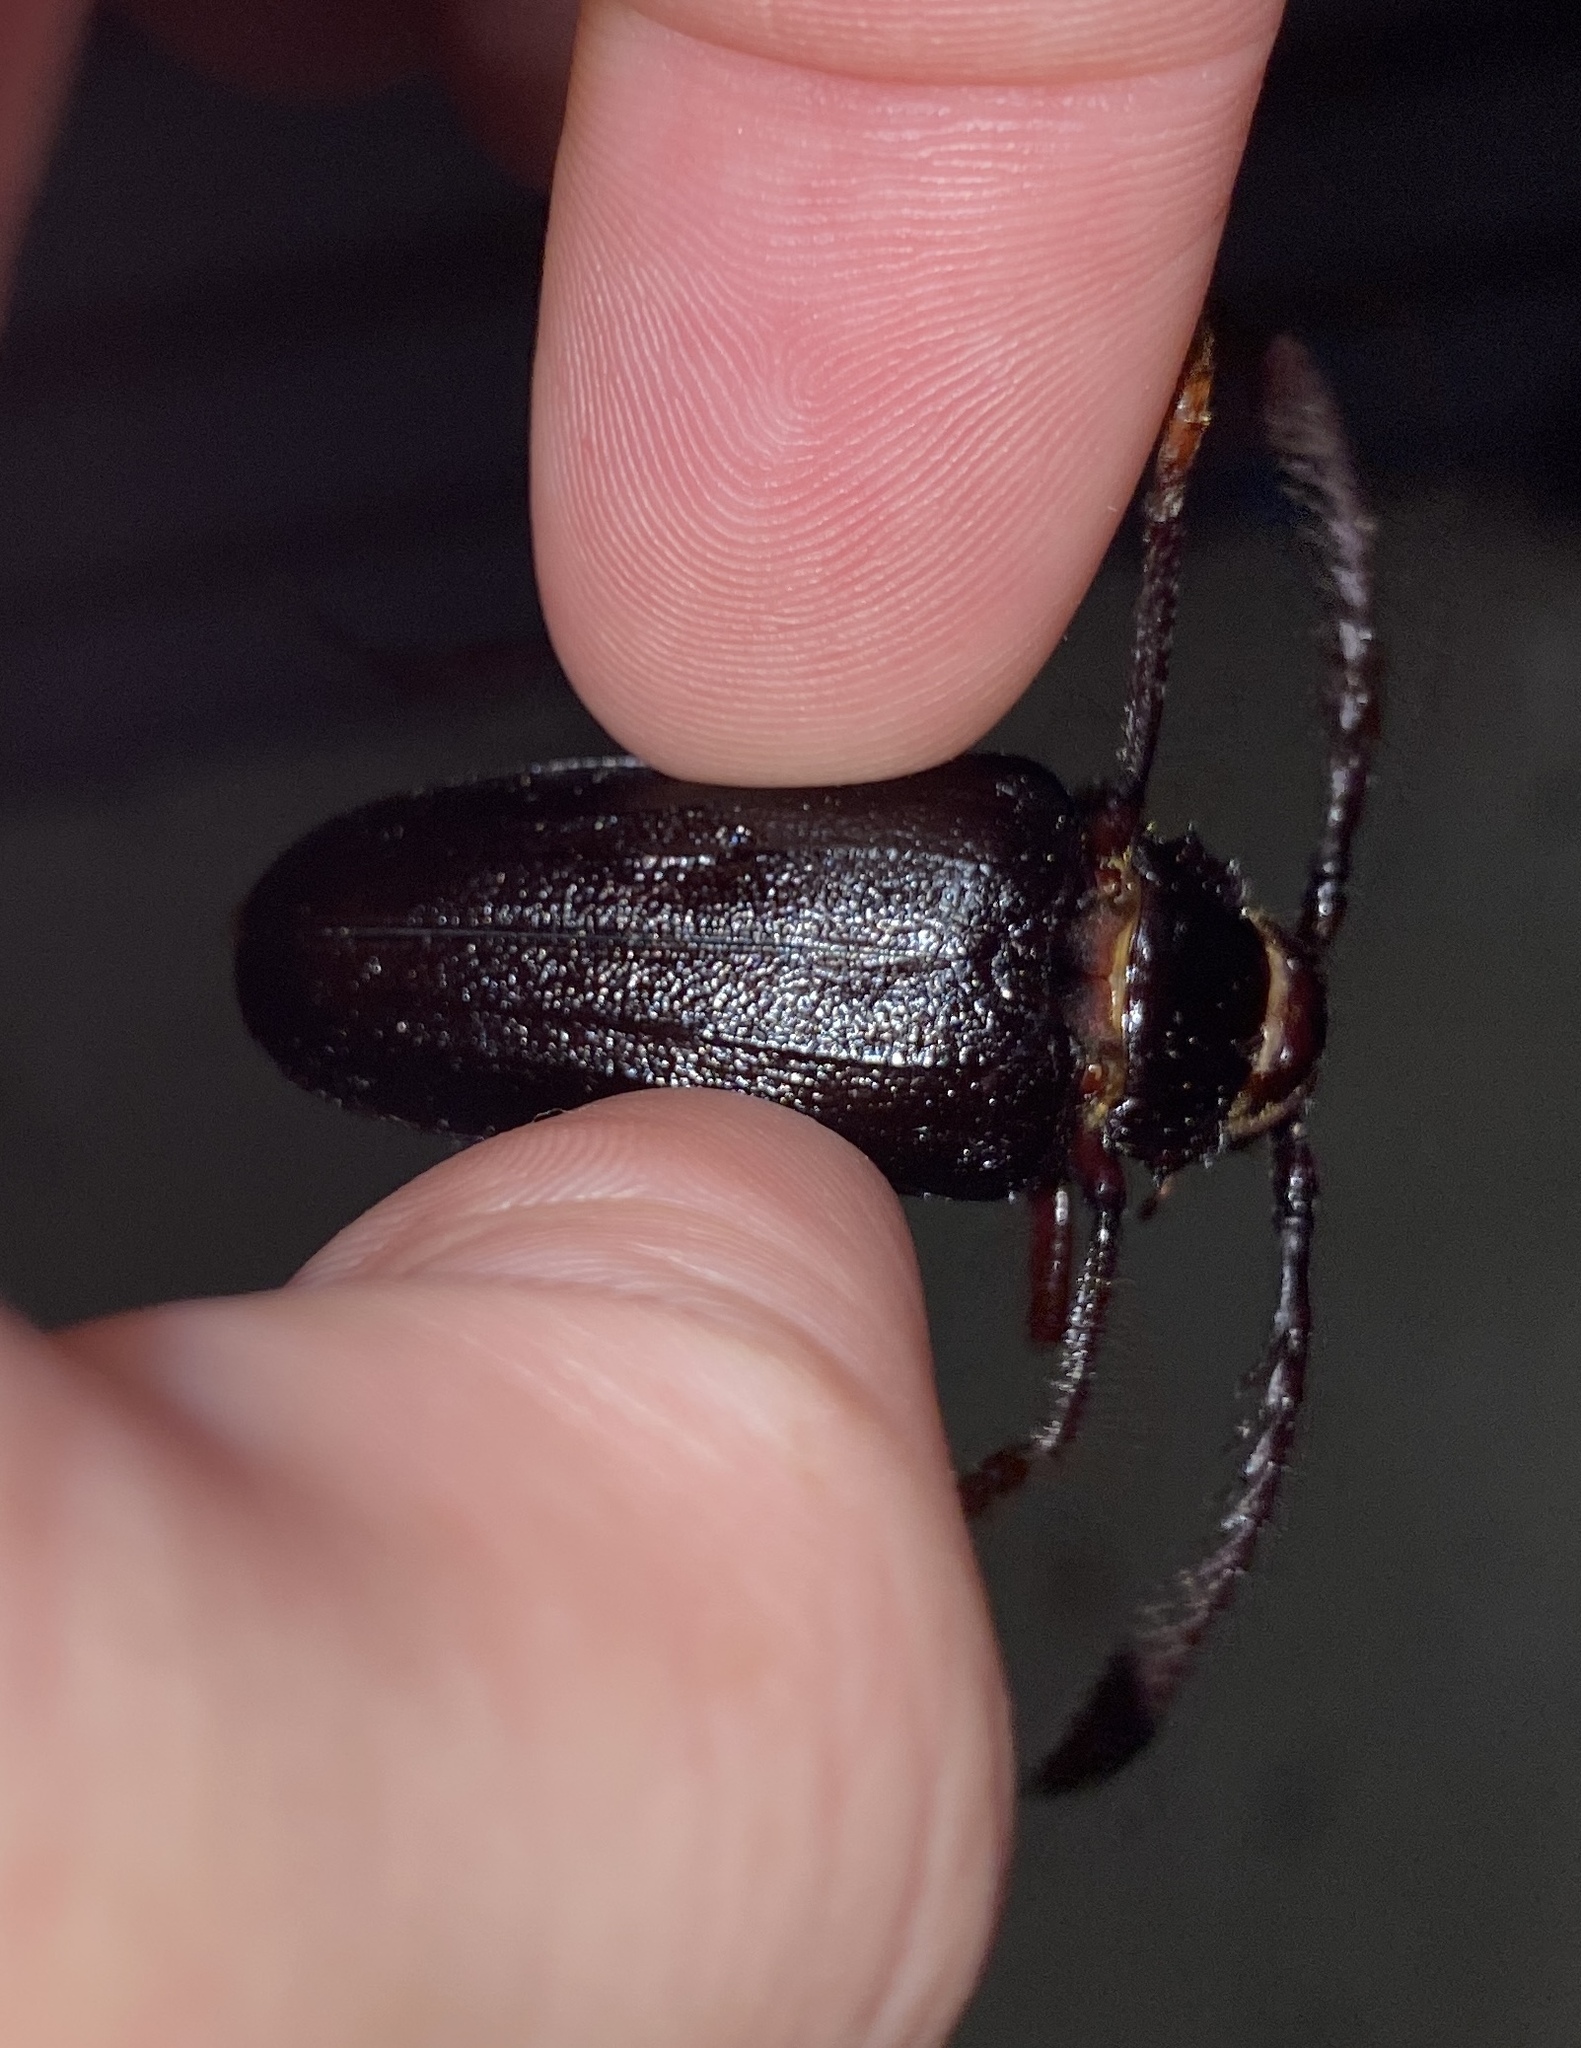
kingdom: Animalia
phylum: Arthropoda
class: Insecta
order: Coleoptera
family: Cerambycidae
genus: Prionus
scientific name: Prionus imbricornis
